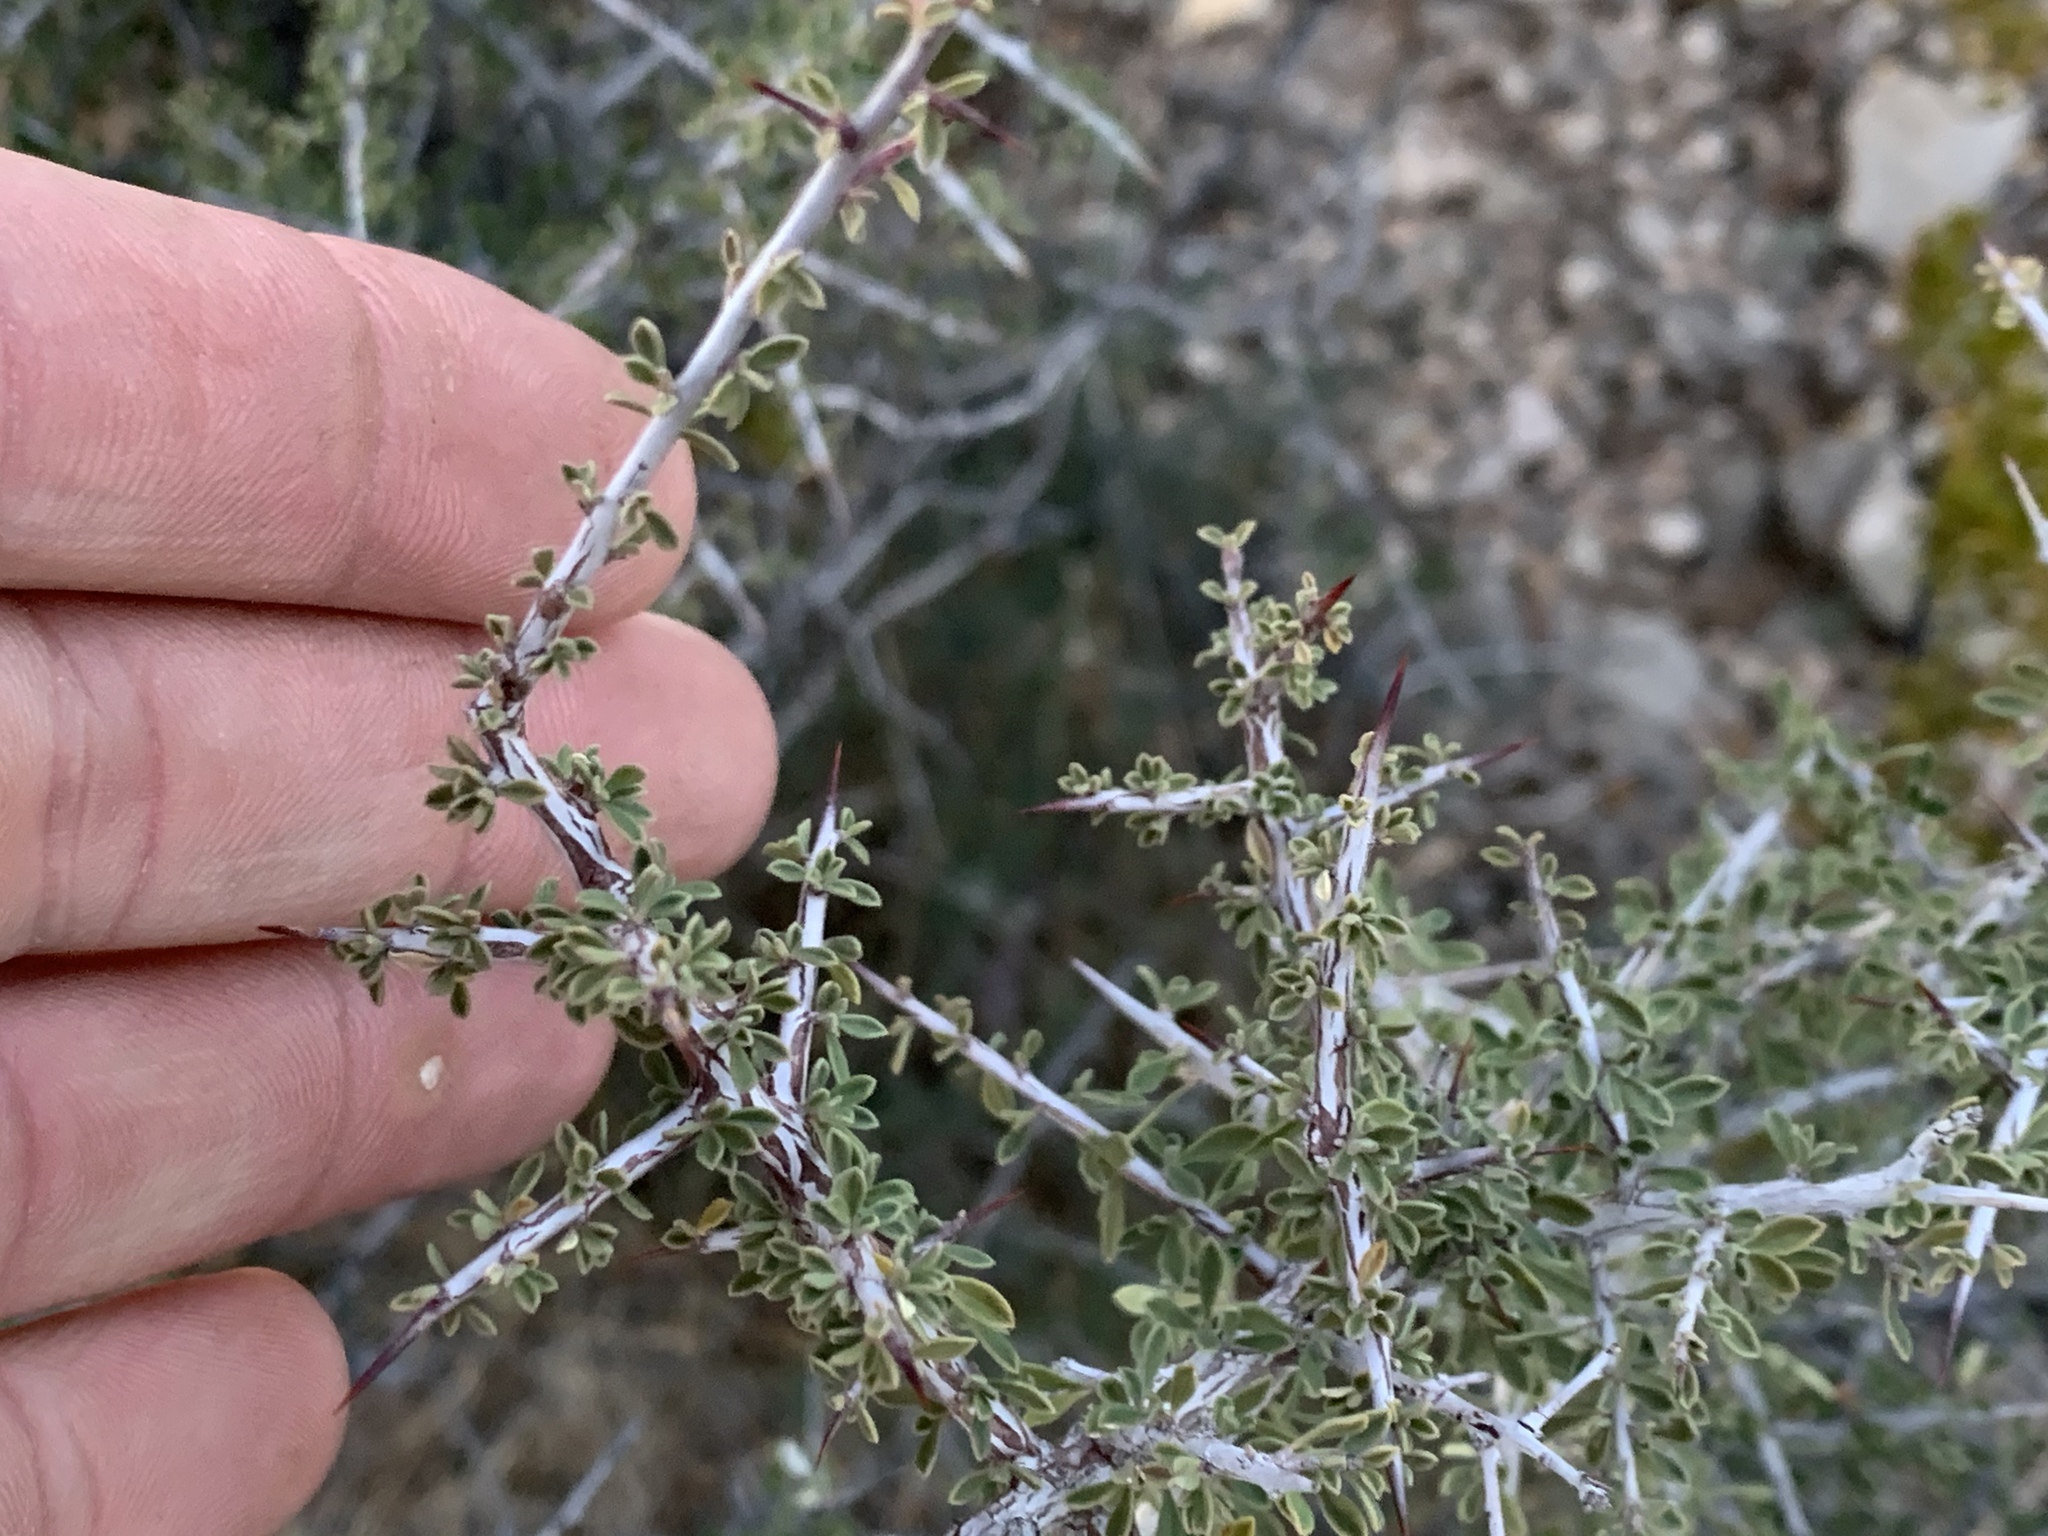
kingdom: Plantae
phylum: Tracheophyta
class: Magnoliopsida
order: Rosales
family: Rhamnaceae
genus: Condalia
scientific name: Condalia warnockii
